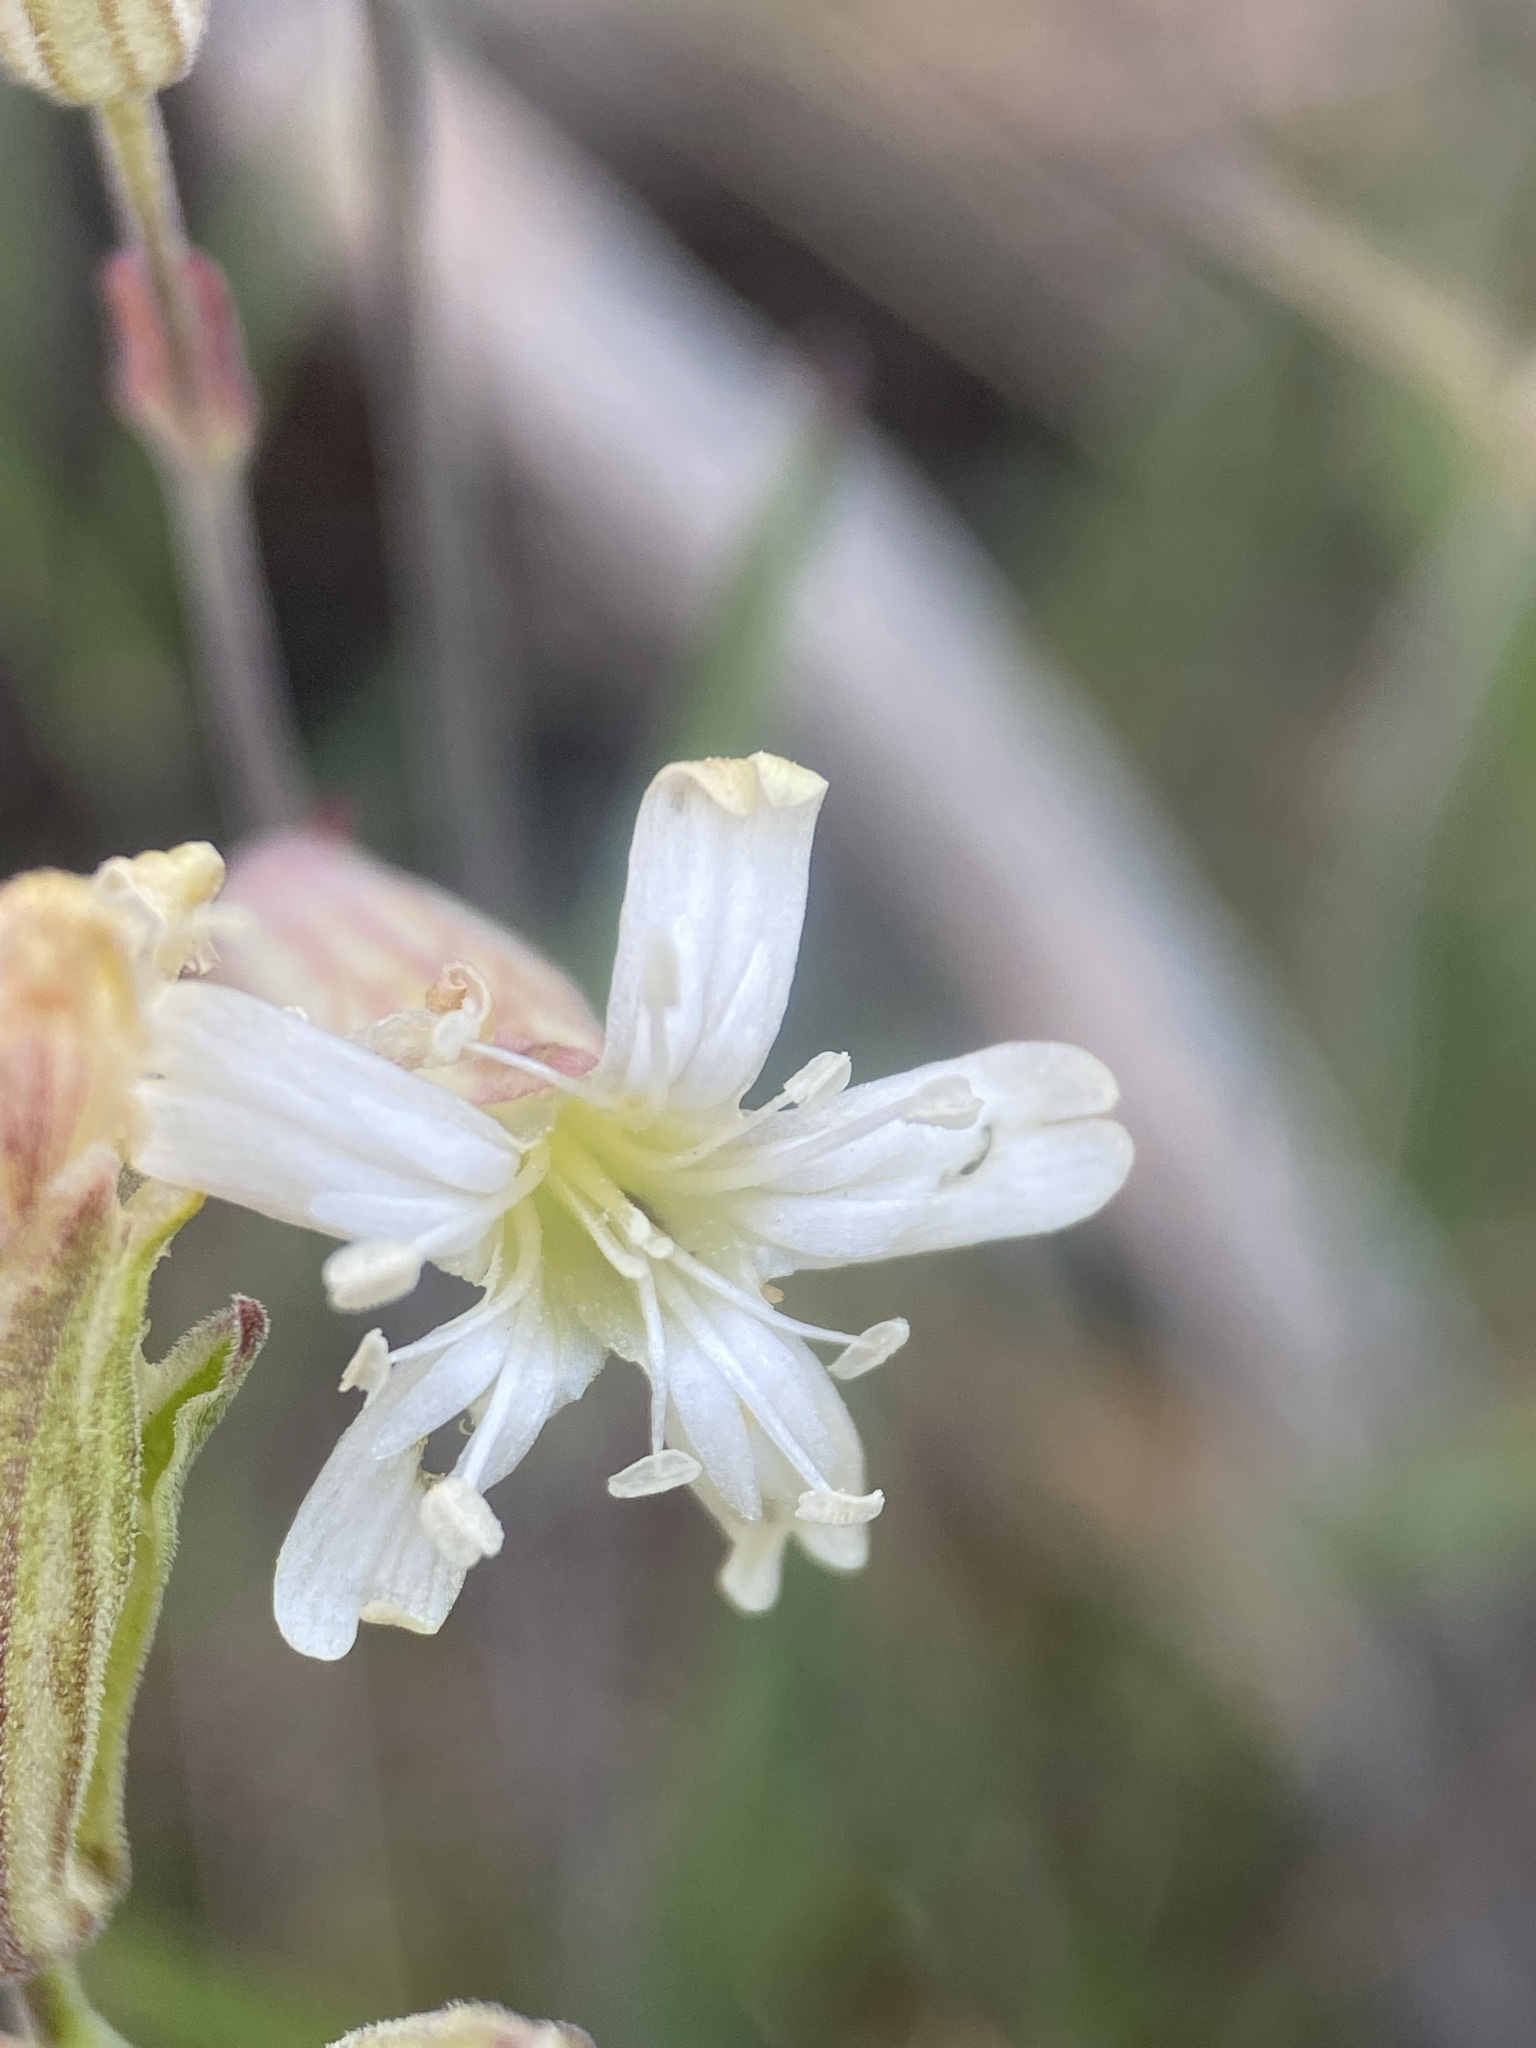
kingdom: Plantae
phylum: Tracheophyta
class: Magnoliopsida
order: Caryophyllales
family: Caryophyllaceae
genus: Silene
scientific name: Silene douglasii
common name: Douglas's catchfly
